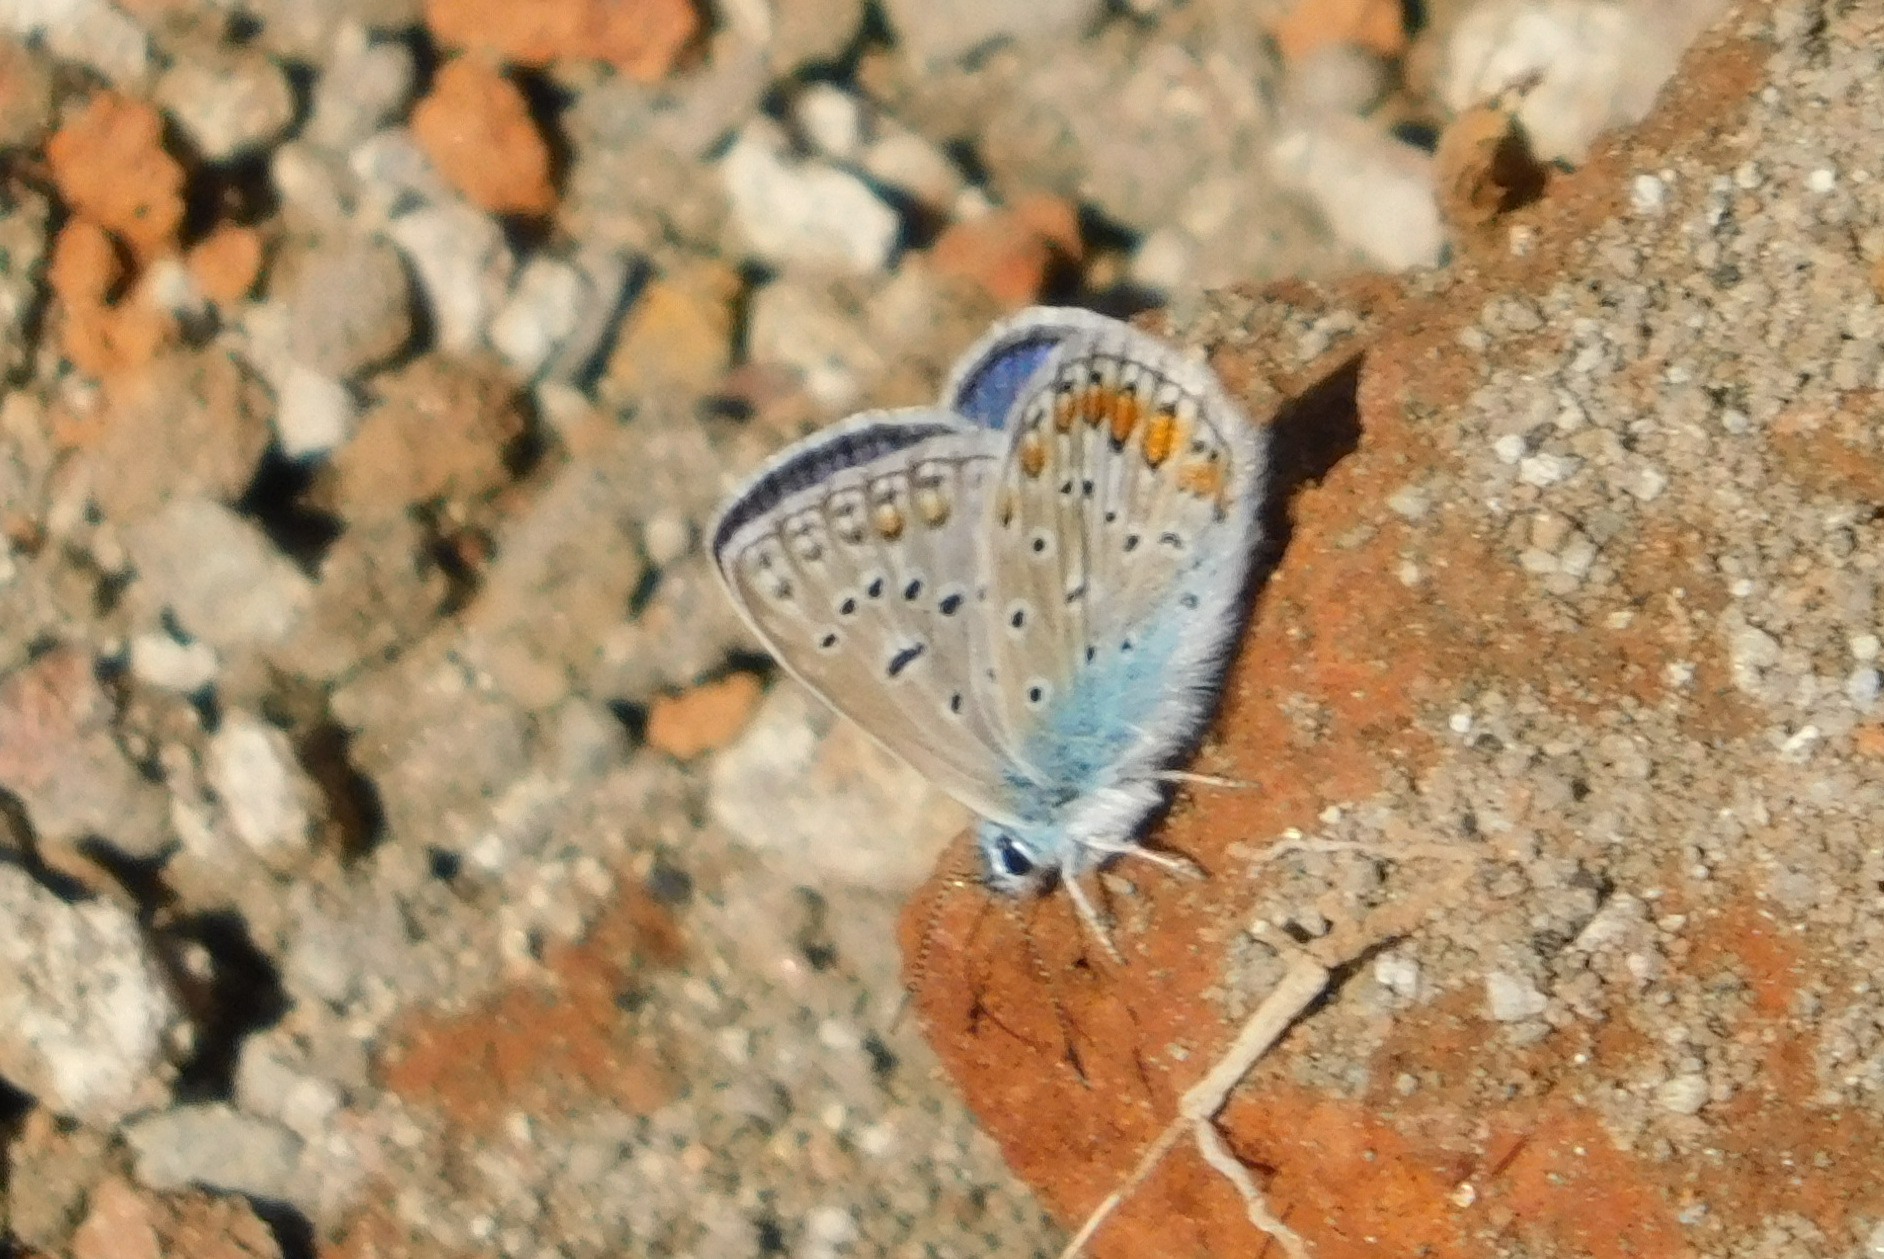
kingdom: Animalia
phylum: Arthropoda
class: Insecta
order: Lepidoptera
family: Lycaenidae
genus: Polyommatus
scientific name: Polyommatus icarus
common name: Common blue
